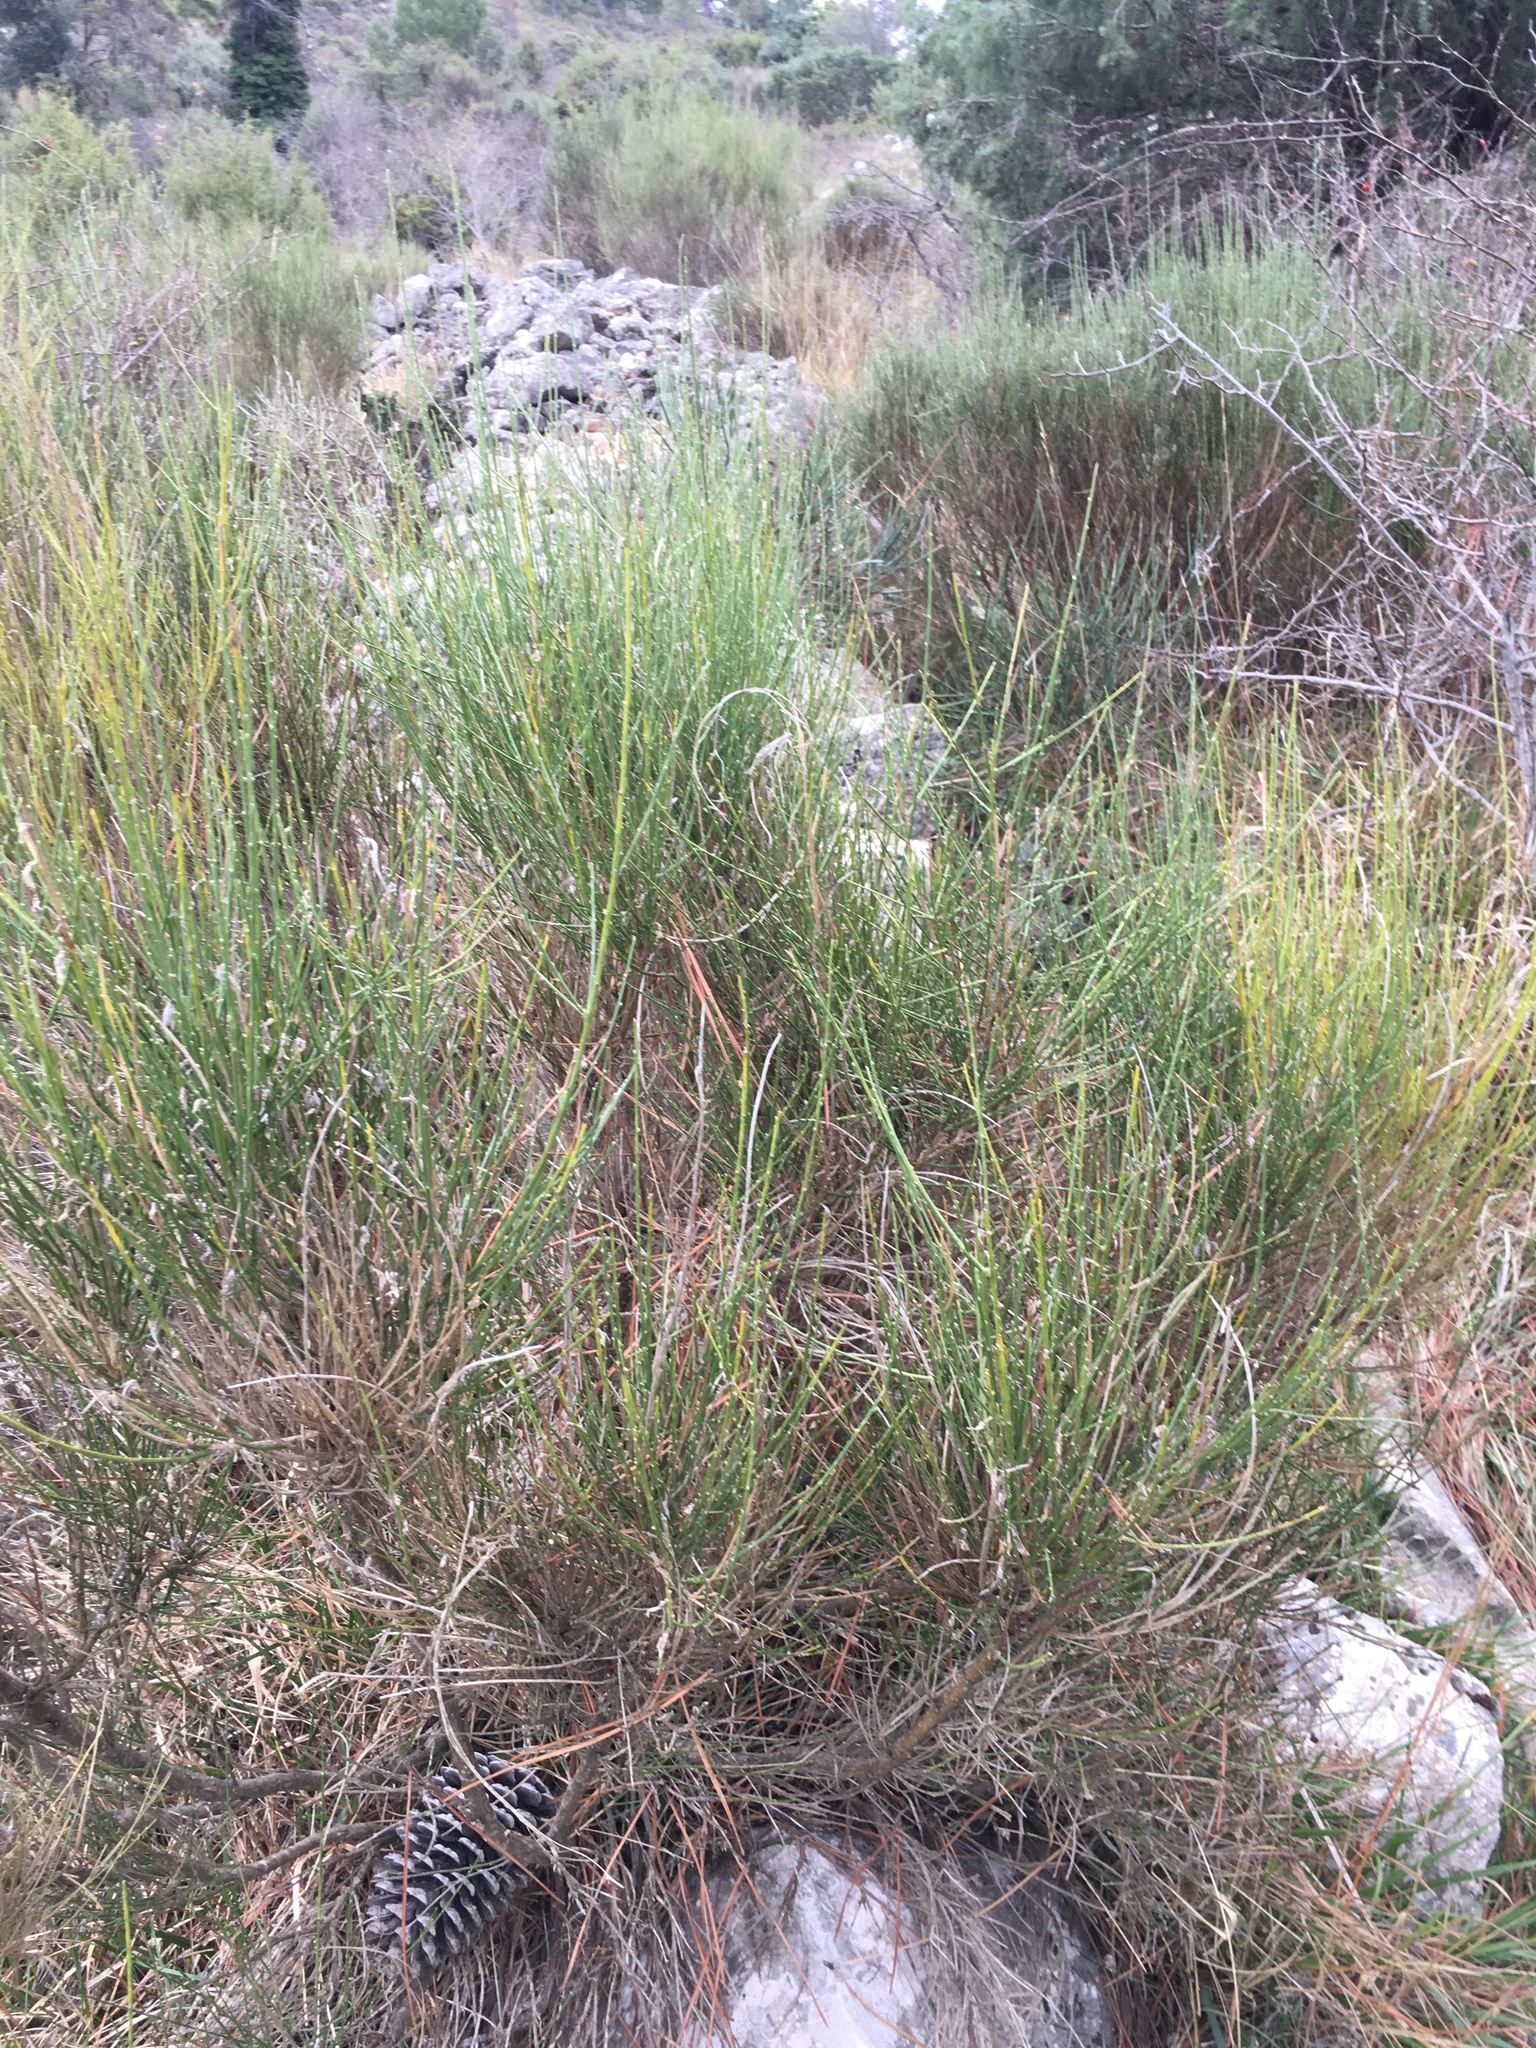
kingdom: Plantae
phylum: Tracheophyta
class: Magnoliopsida
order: Fabales
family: Fabaceae
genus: Cytisus
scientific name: Cytisus scoparius
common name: Scotch broom
